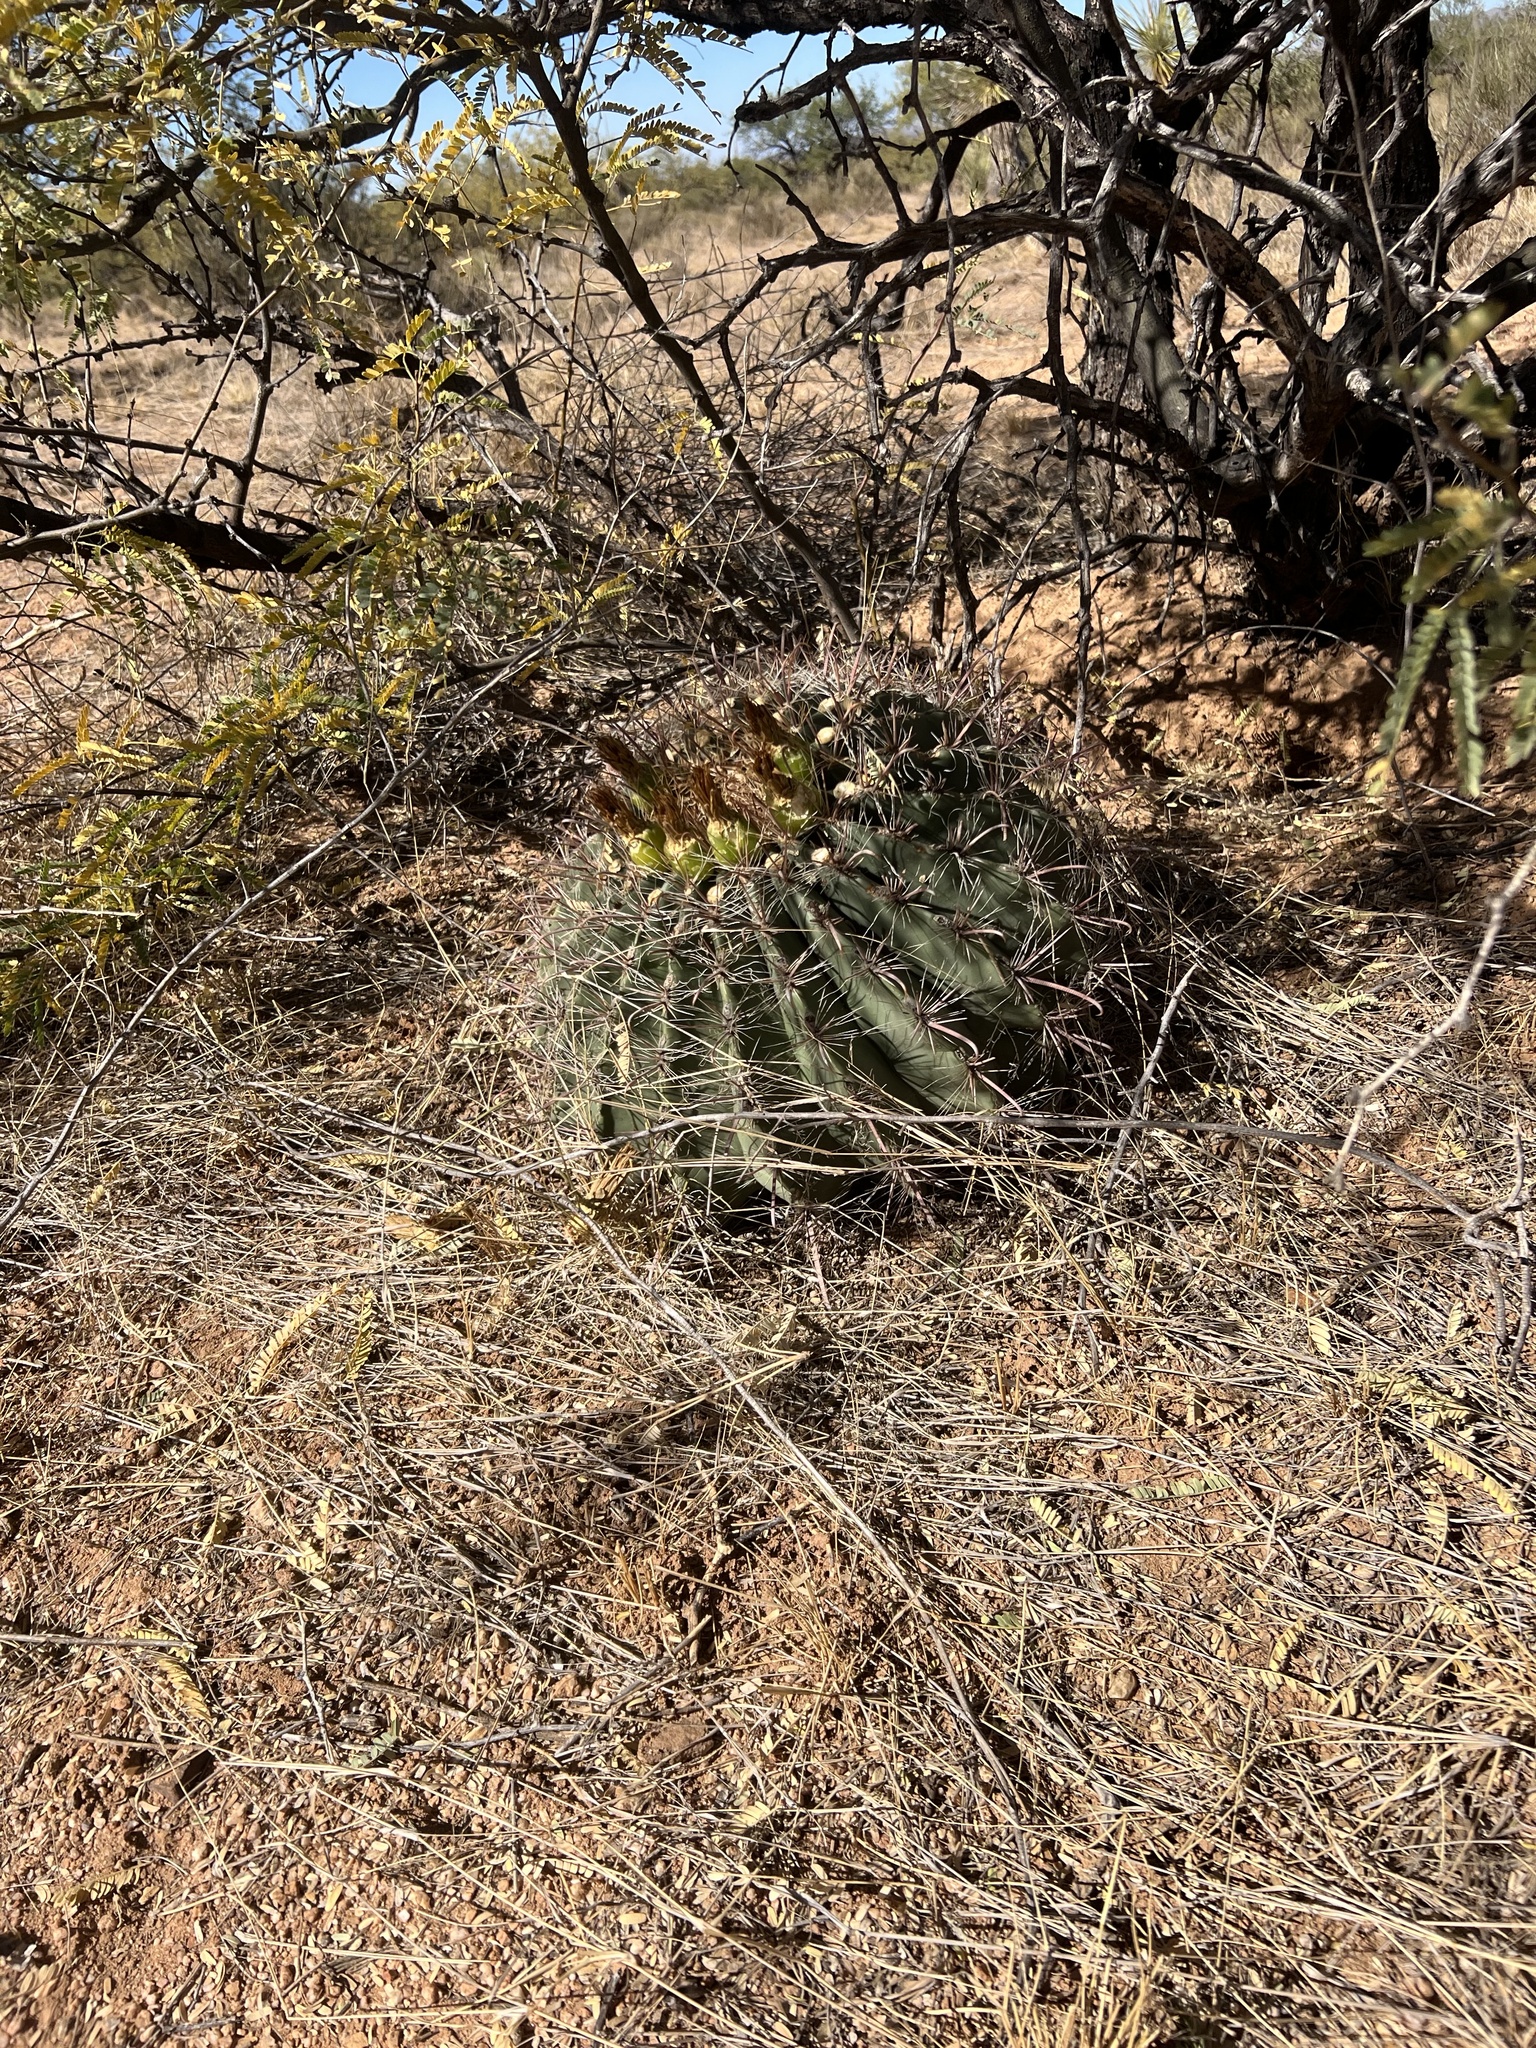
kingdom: Plantae
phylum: Tracheophyta
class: Magnoliopsida
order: Caryophyllales
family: Cactaceae
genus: Ferocactus
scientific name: Ferocactus wislizeni
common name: Candy barrel cactus
